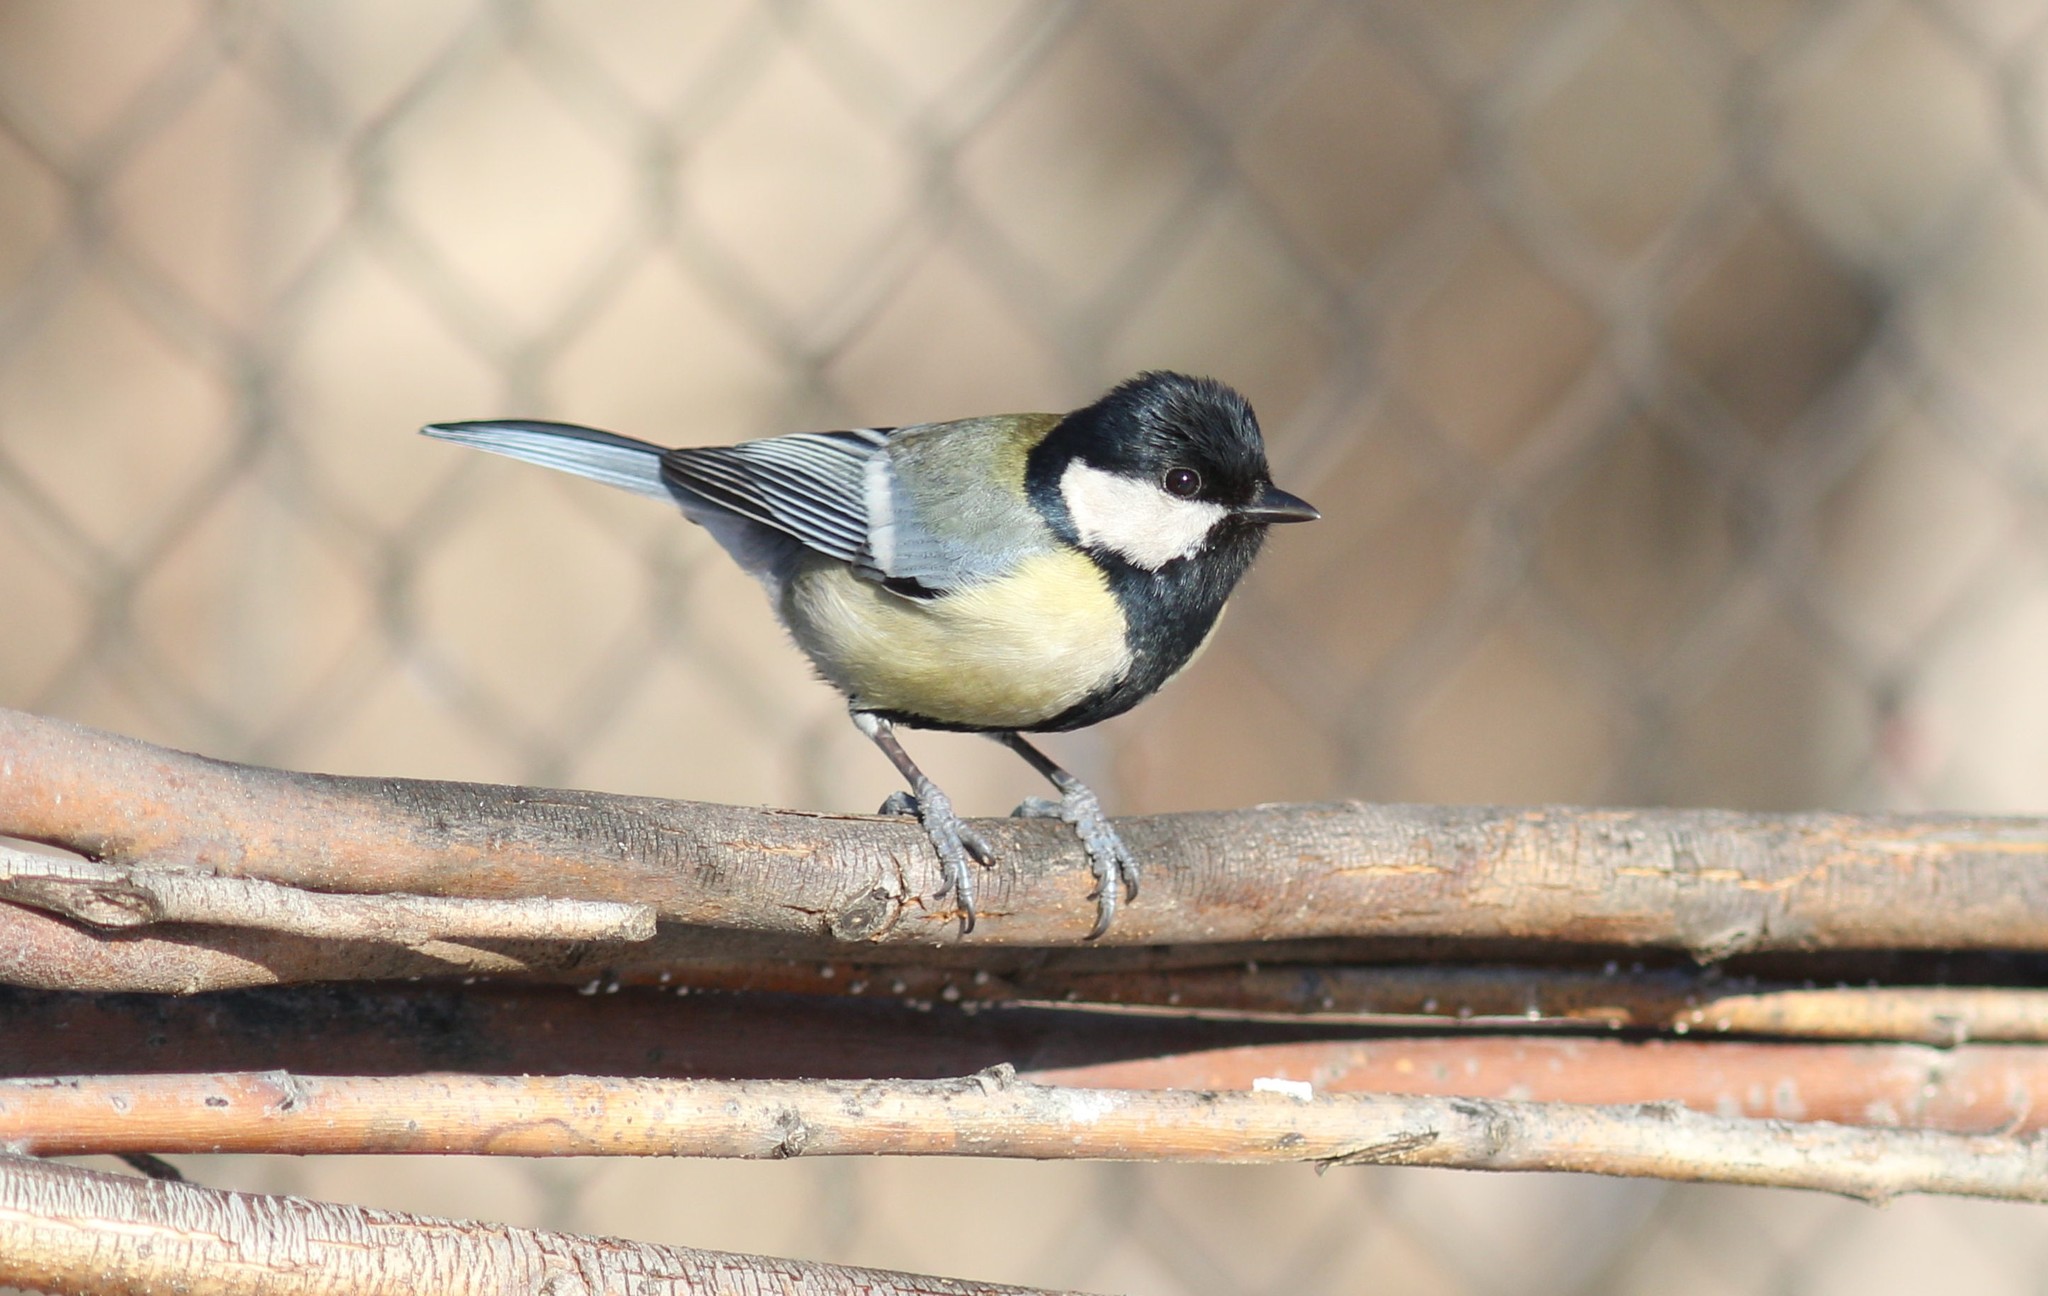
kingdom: Animalia
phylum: Chordata
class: Aves
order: Passeriformes
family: Paridae
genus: Parus
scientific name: Parus major
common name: Great tit
